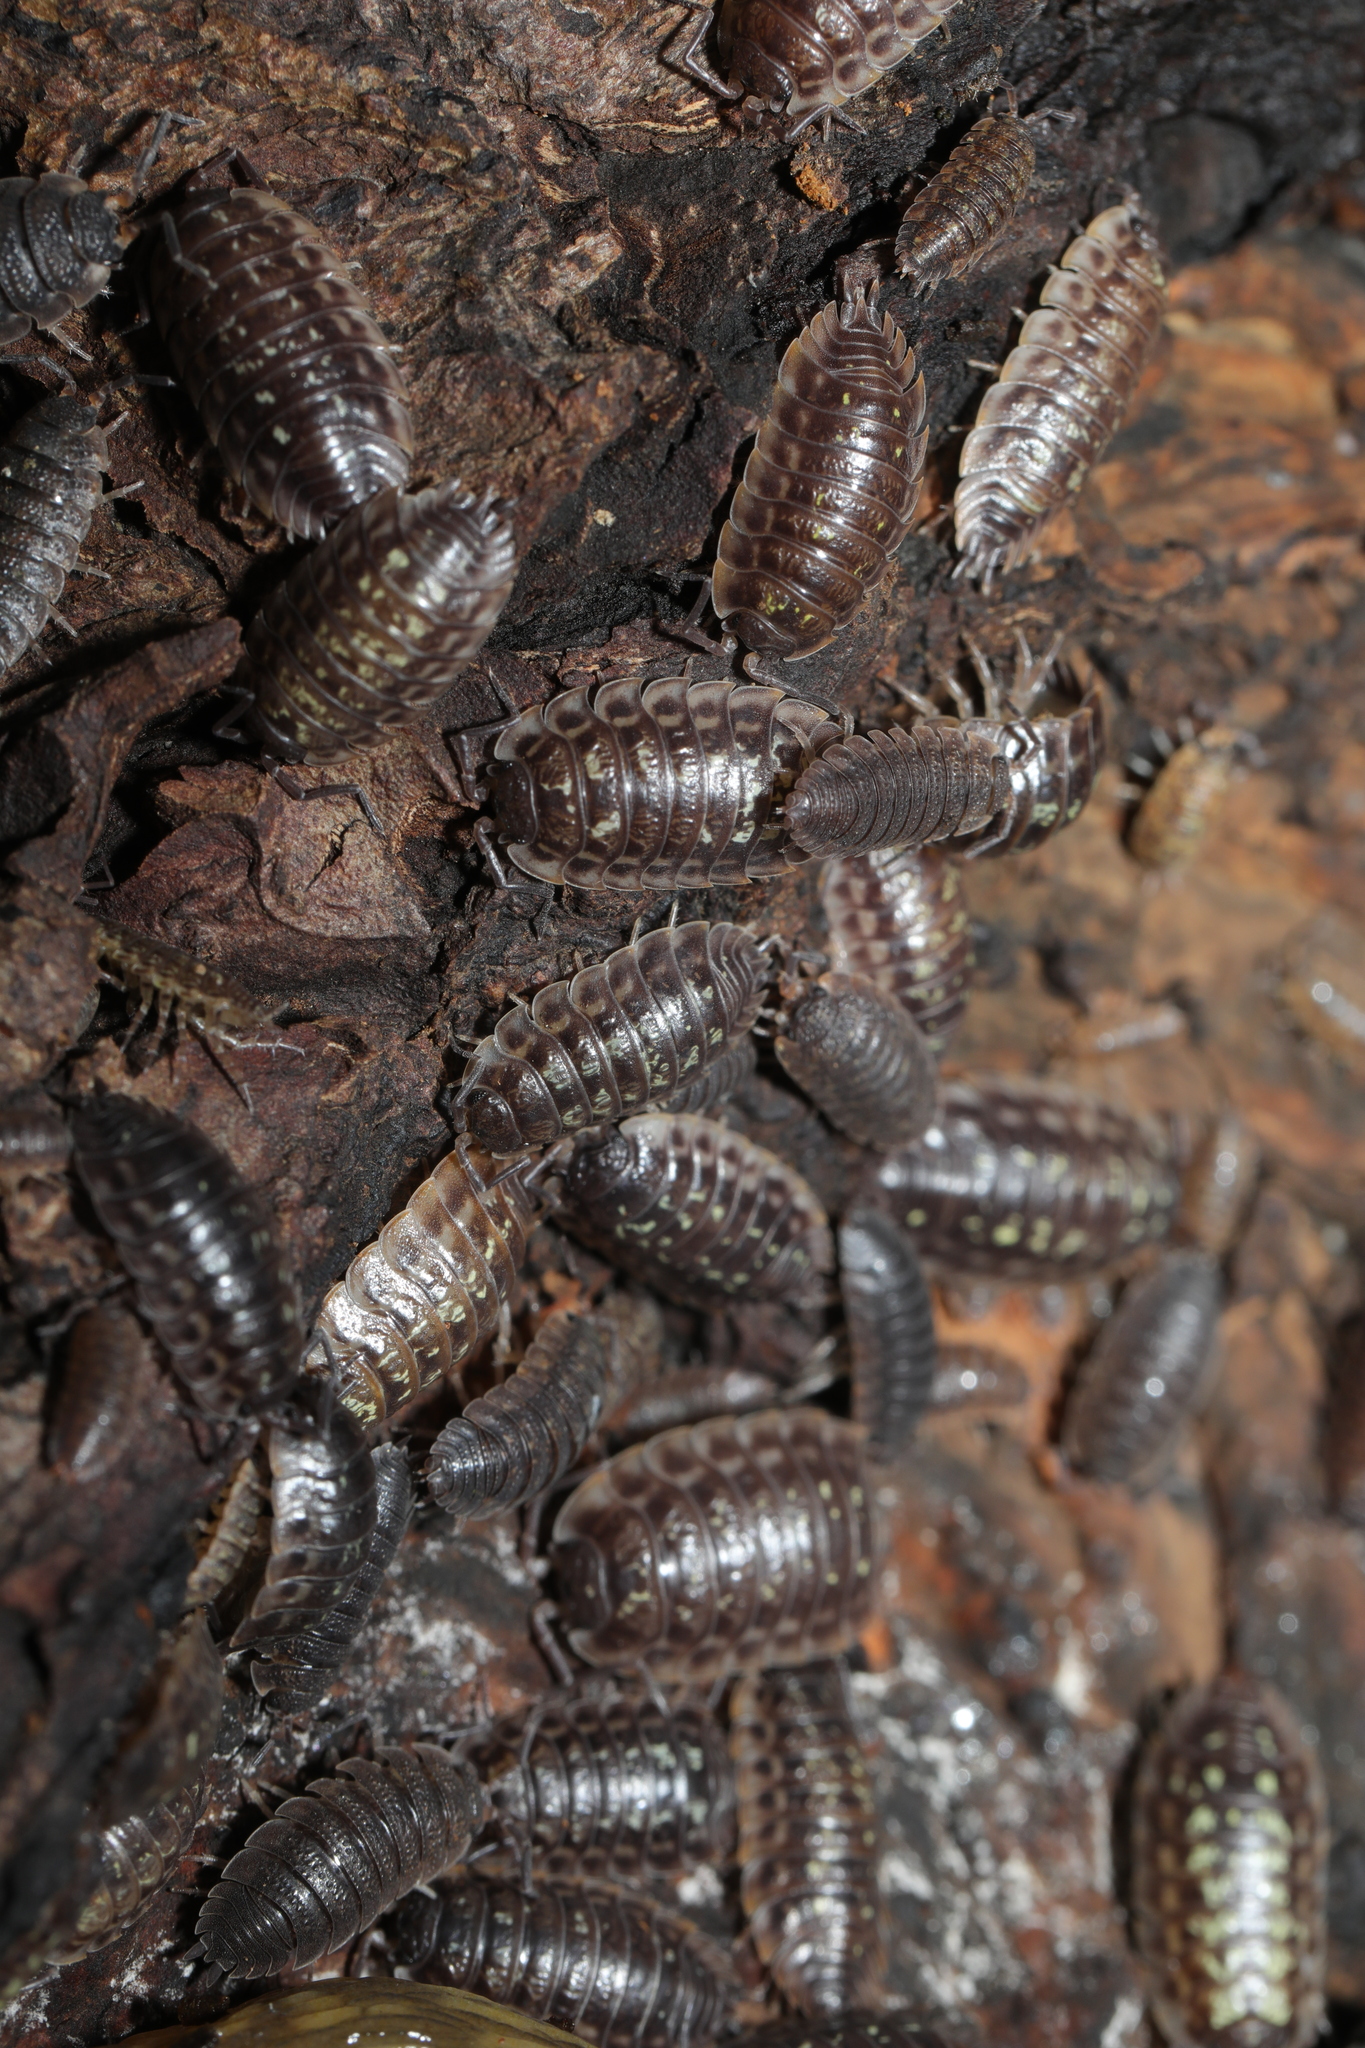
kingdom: Animalia
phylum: Arthropoda
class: Malacostraca
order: Isopoda
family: Oniscidae
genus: Oniscus
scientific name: Oniscus asellus
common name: Common shiny woodlouse
